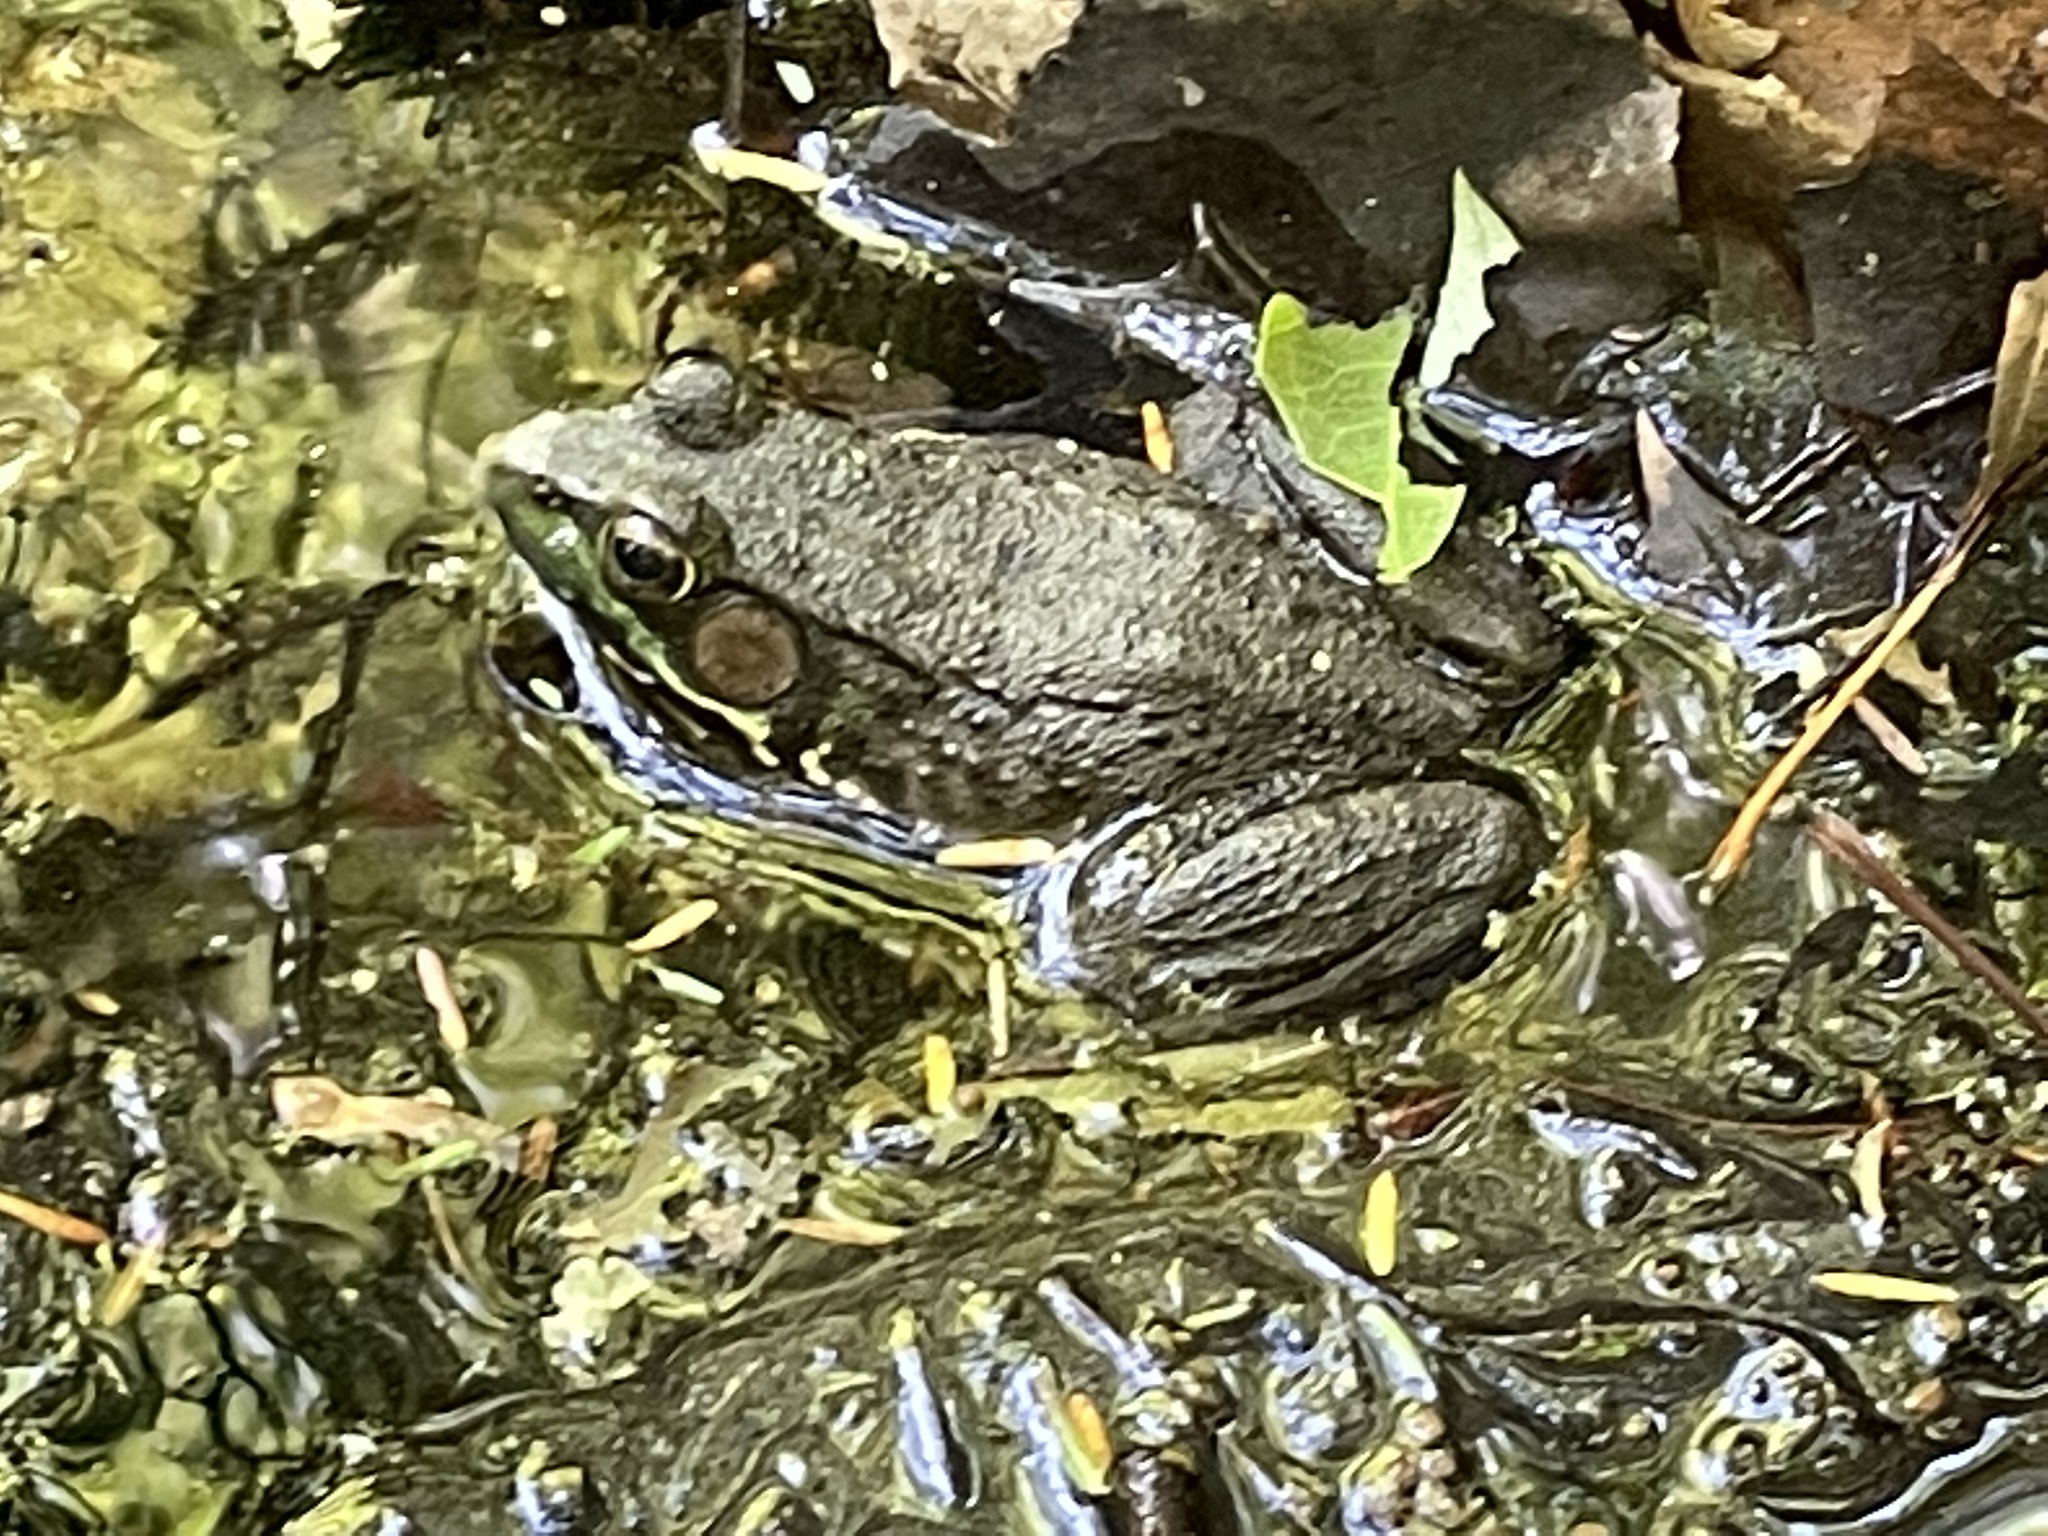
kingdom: Animalia
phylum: Chordata
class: Amphibia
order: Anura
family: Ranidae
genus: Lithobates
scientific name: Lithobates clamitans
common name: Green frog
